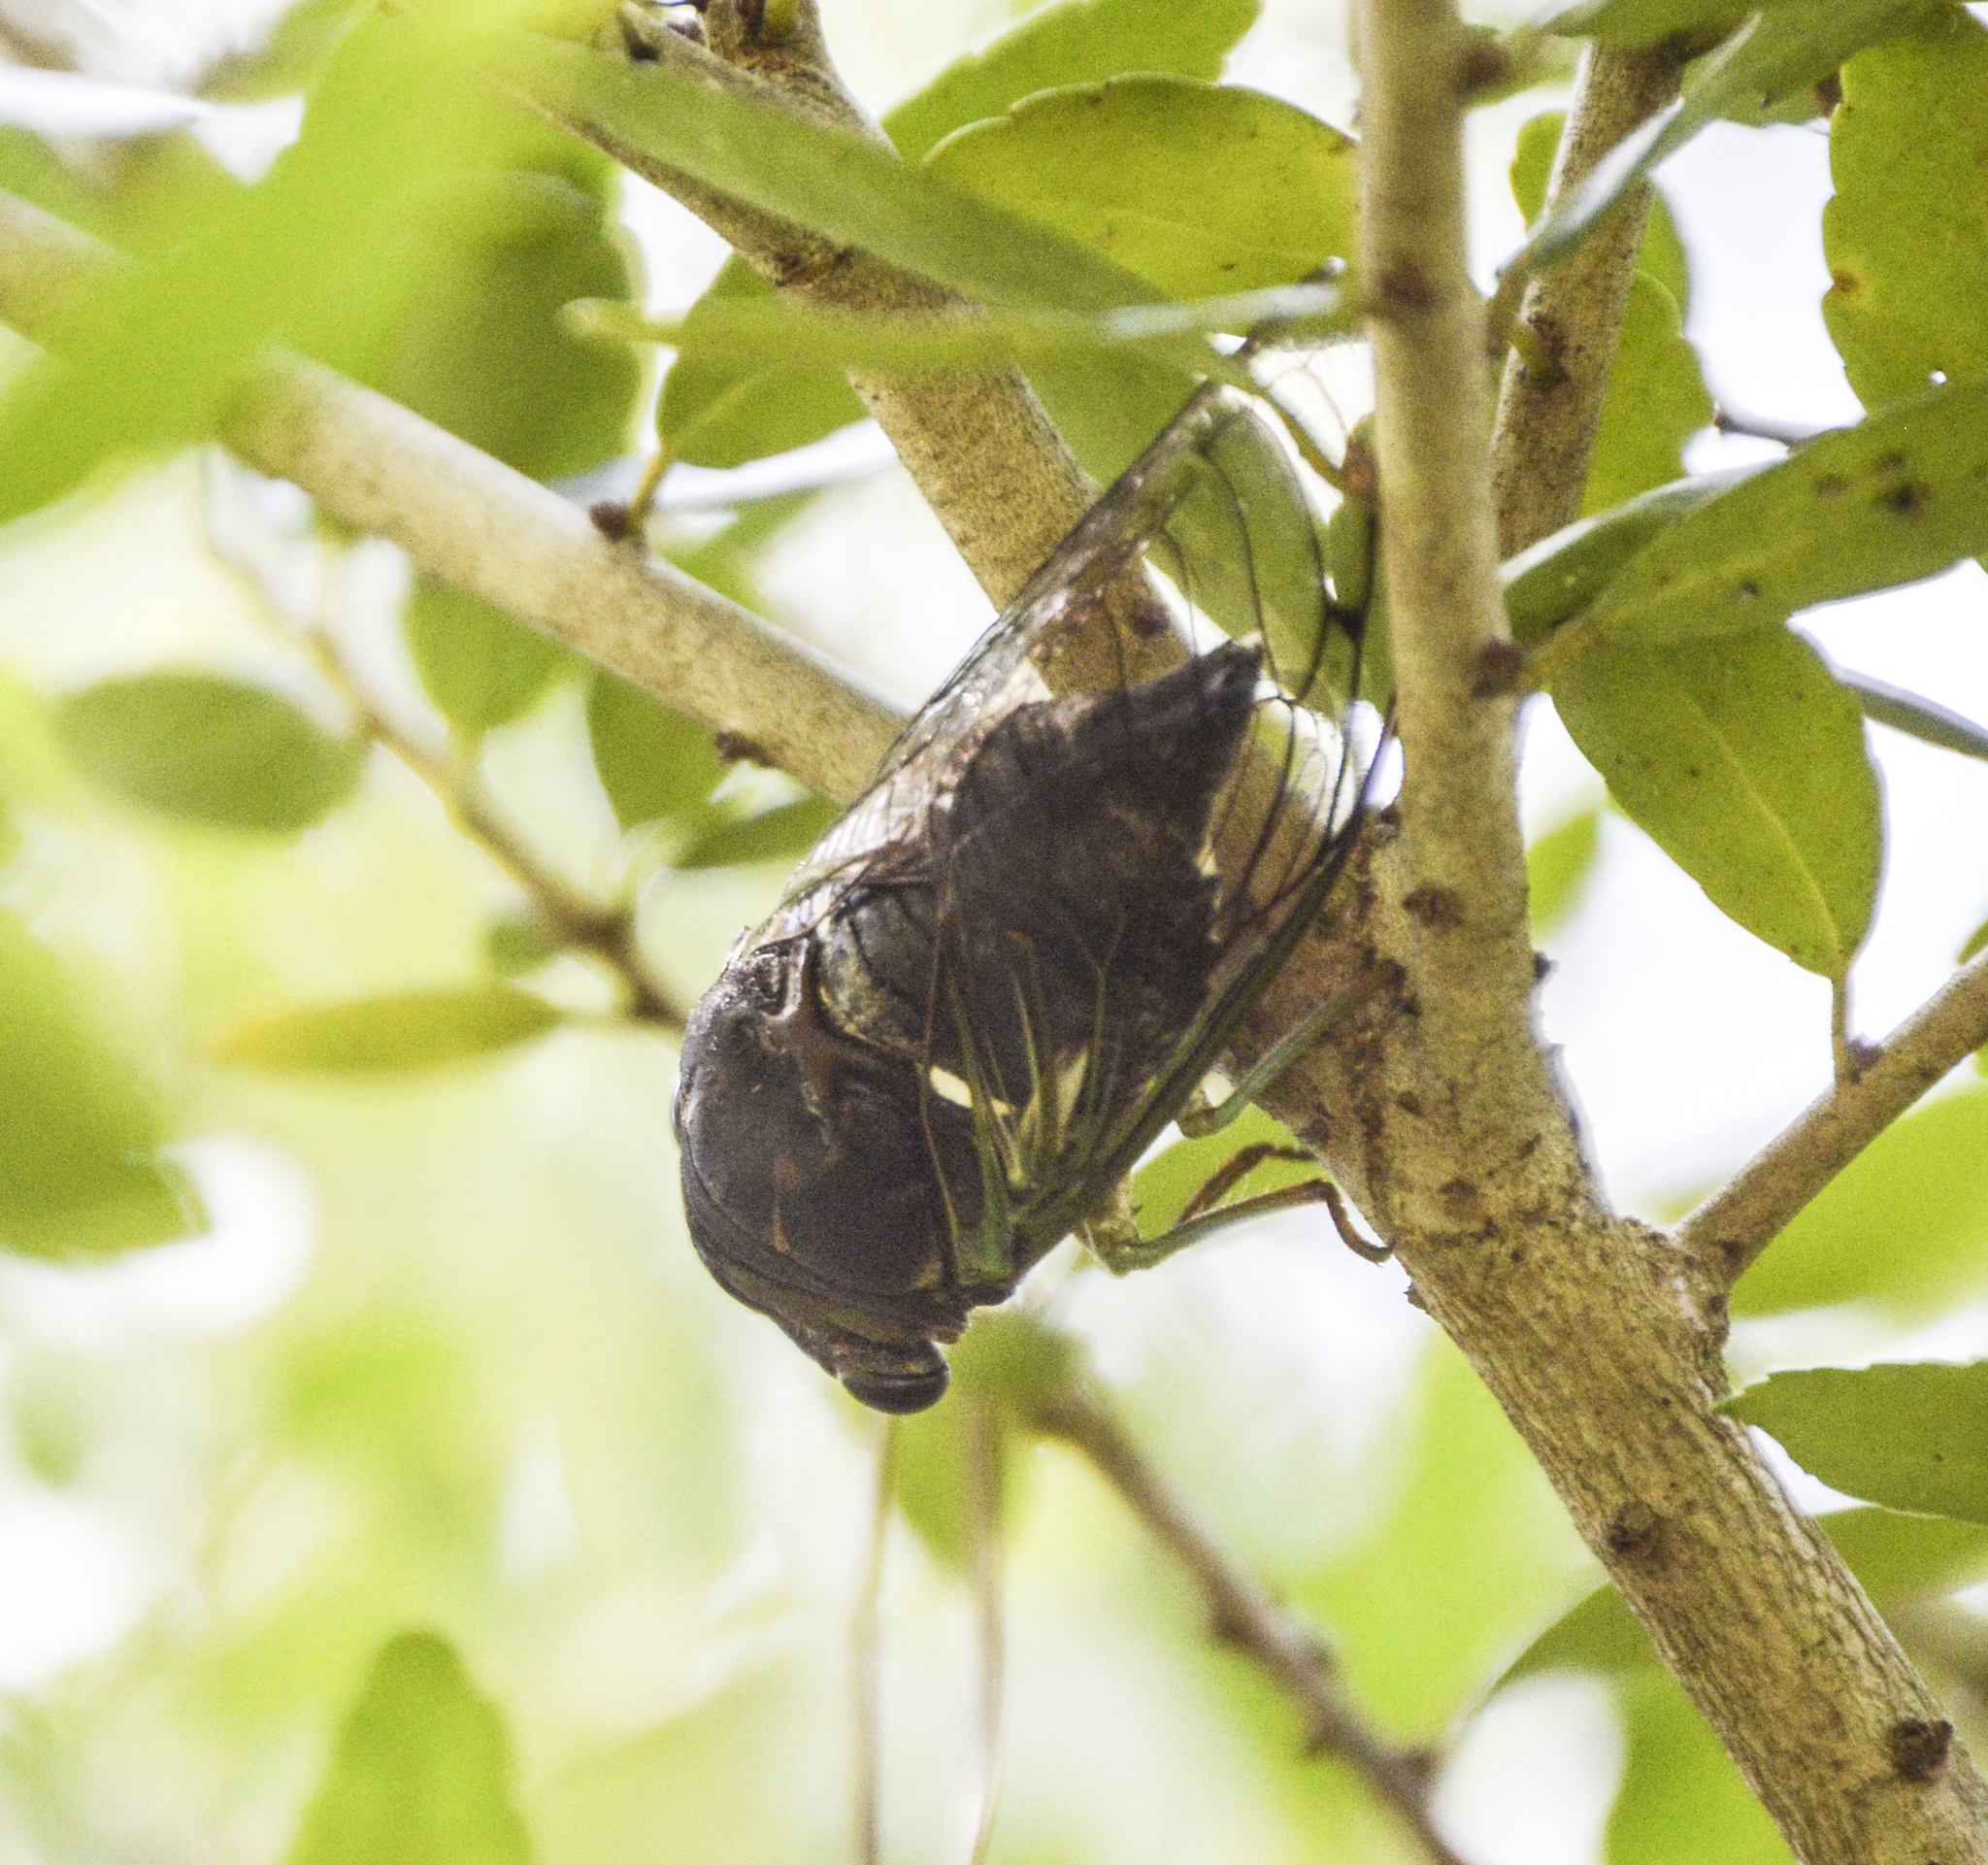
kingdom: Animalia
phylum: Arthropoda
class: Insecta
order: Hemiptera
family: Cicadidae
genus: Neotibicen
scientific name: Neotibicen tibicen
